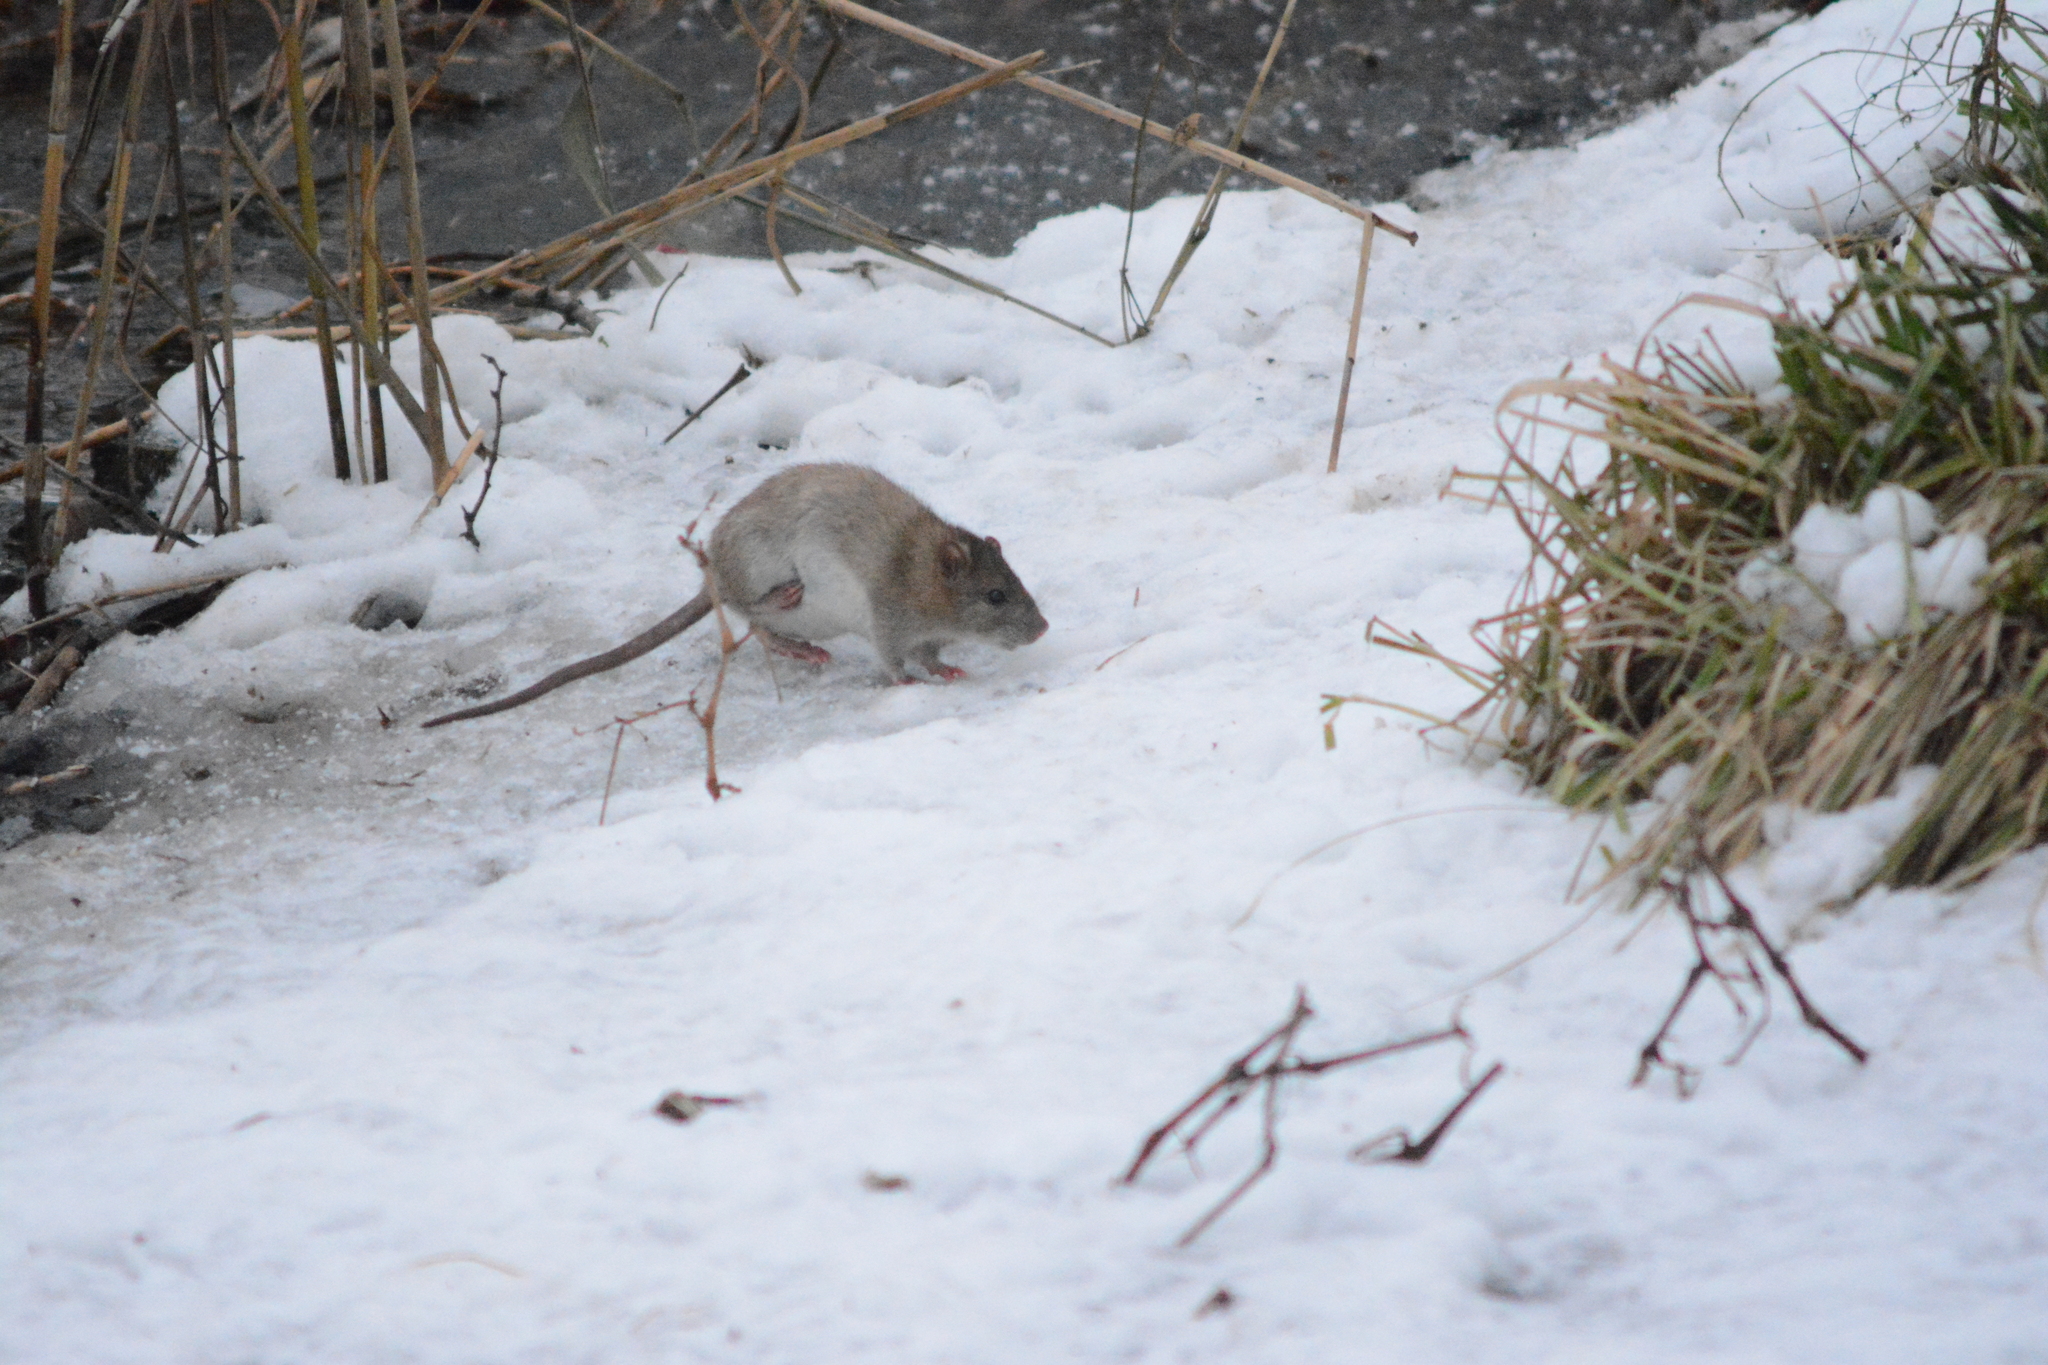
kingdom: Animalia
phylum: Chordata
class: Mammalia
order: Rodentia
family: Muridae
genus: Rattus
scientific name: Rattus norvegicus
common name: Brown rat
